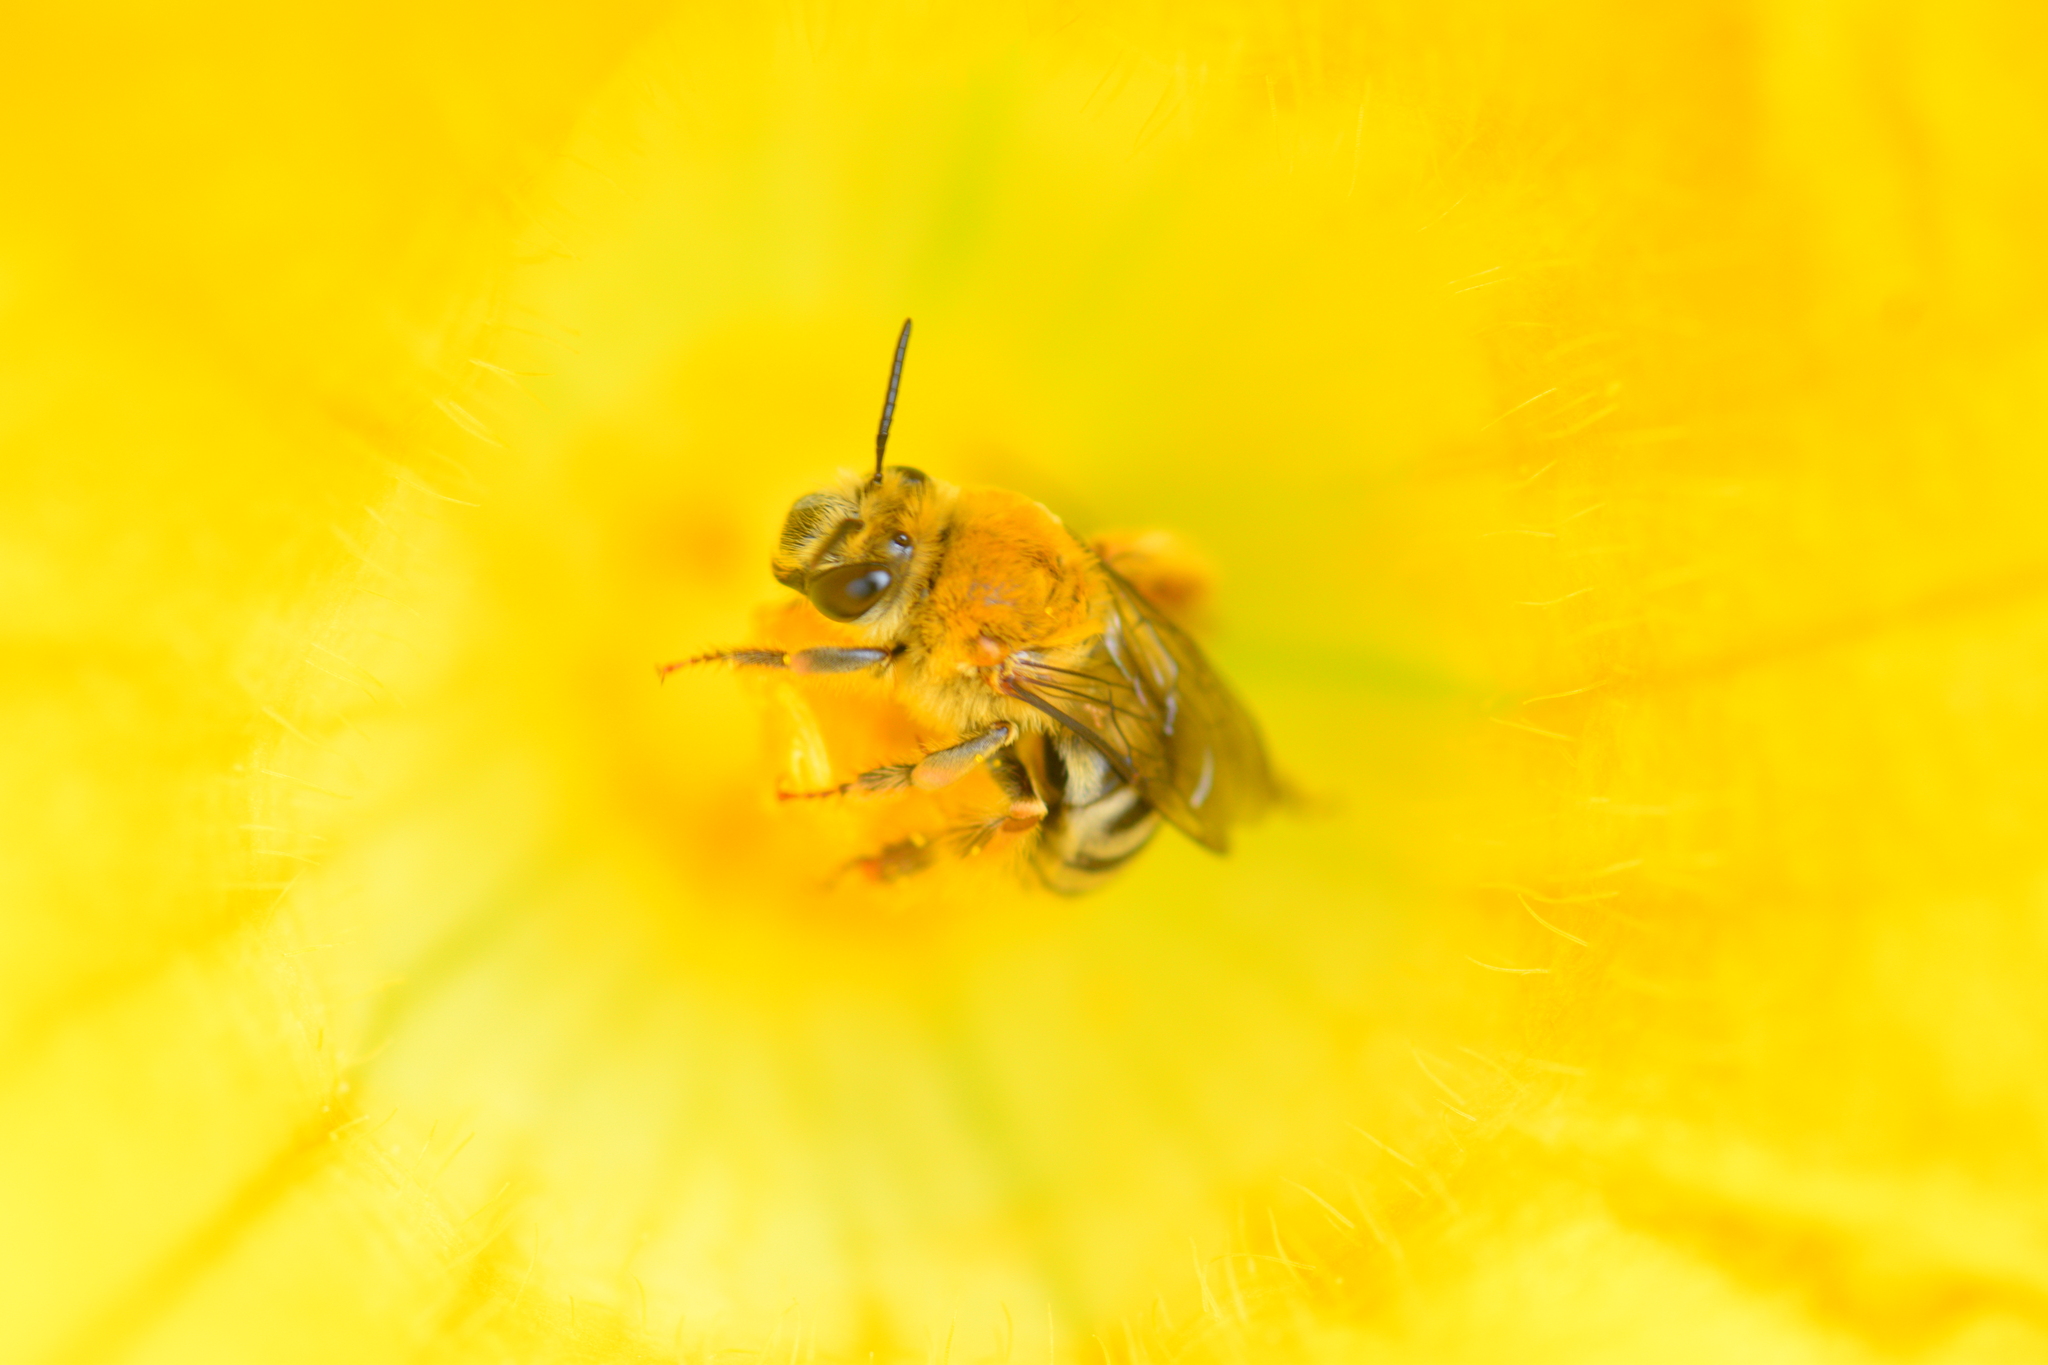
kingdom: Animalia
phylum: Arthropoda
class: Insecta
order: Hymenoptera
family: Apidae
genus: Peponapis
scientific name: Peponapis pruinosa
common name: Pruinose squash bee
